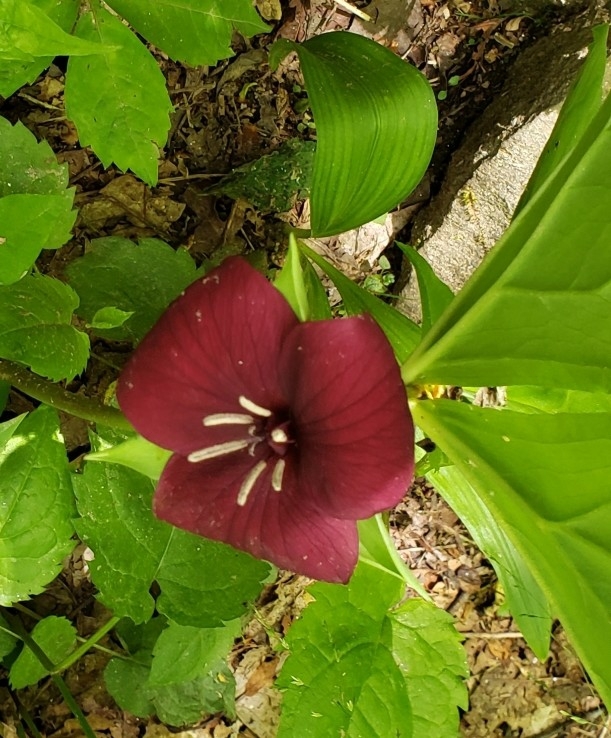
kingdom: Plantae
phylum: Tracheophyta
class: Liliopsida
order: Liliales
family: Melanthiaceae
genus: Trillium
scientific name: Trillium vaseyi
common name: Sweet trillium
